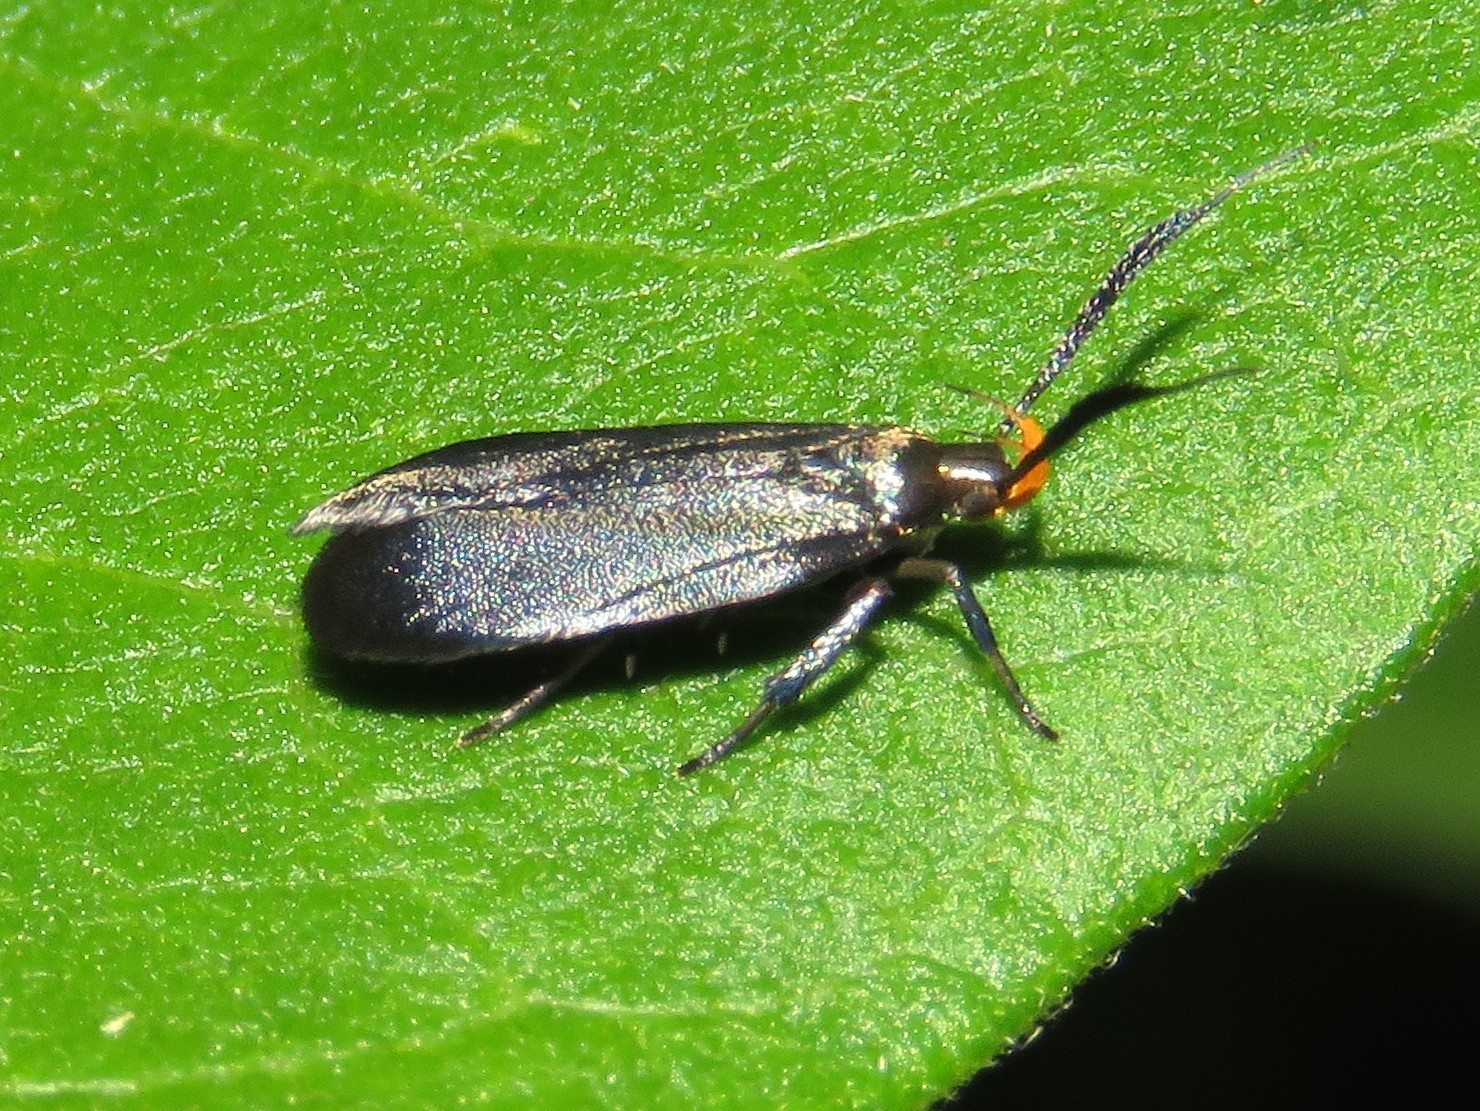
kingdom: Animalia
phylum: Arthropoda
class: Insecta
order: Lepidoptera
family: Gelechiidae
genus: Dichomeris
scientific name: Dichomeris nonstrigella
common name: Little devil moth
